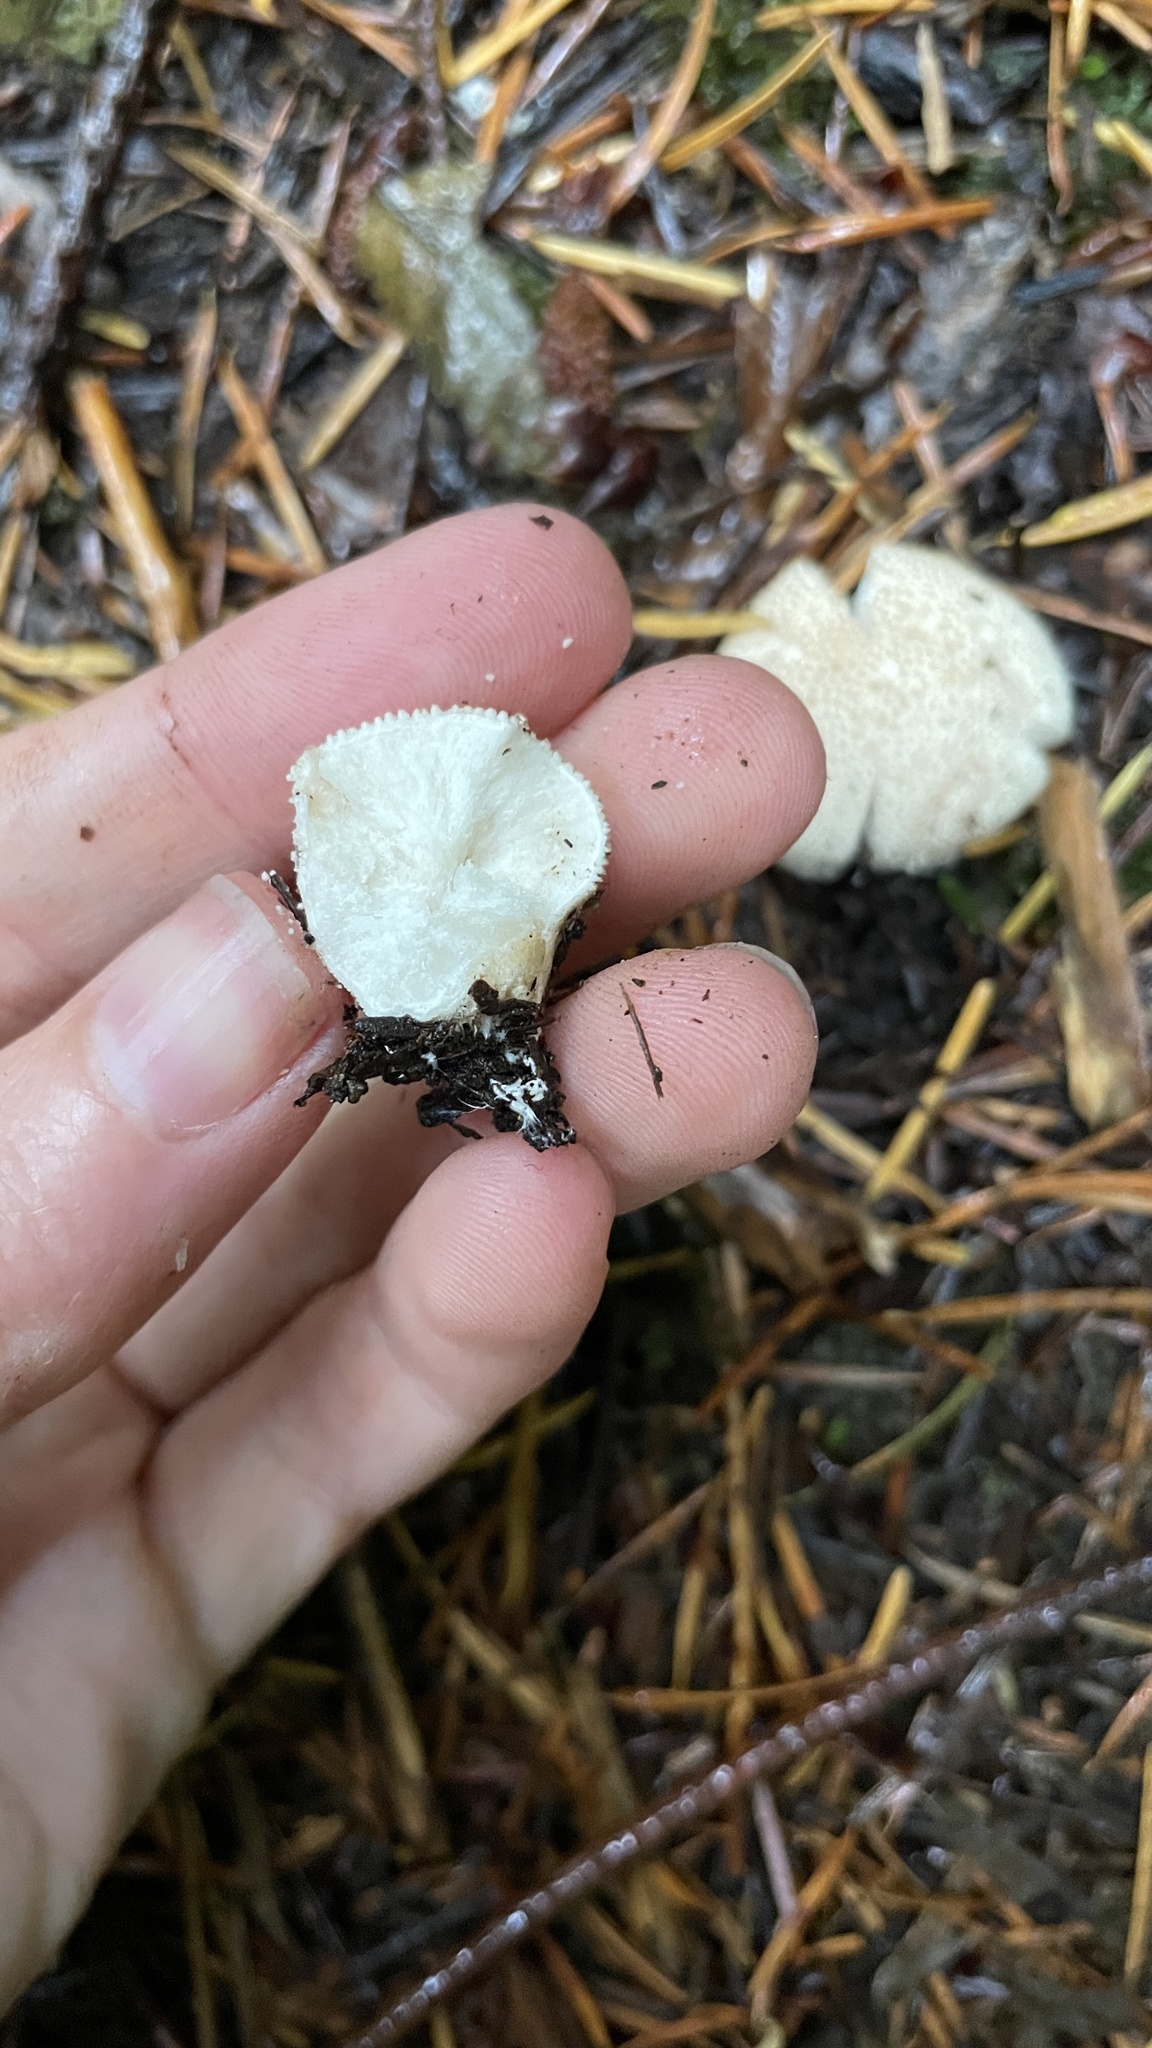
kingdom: Fungi
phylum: Basidiomycota
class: Agaricomycetes
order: Agaricales
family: Lycoperdaceae
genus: Lycoperdon
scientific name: Lycoperdon perlatum
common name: Common puffball
